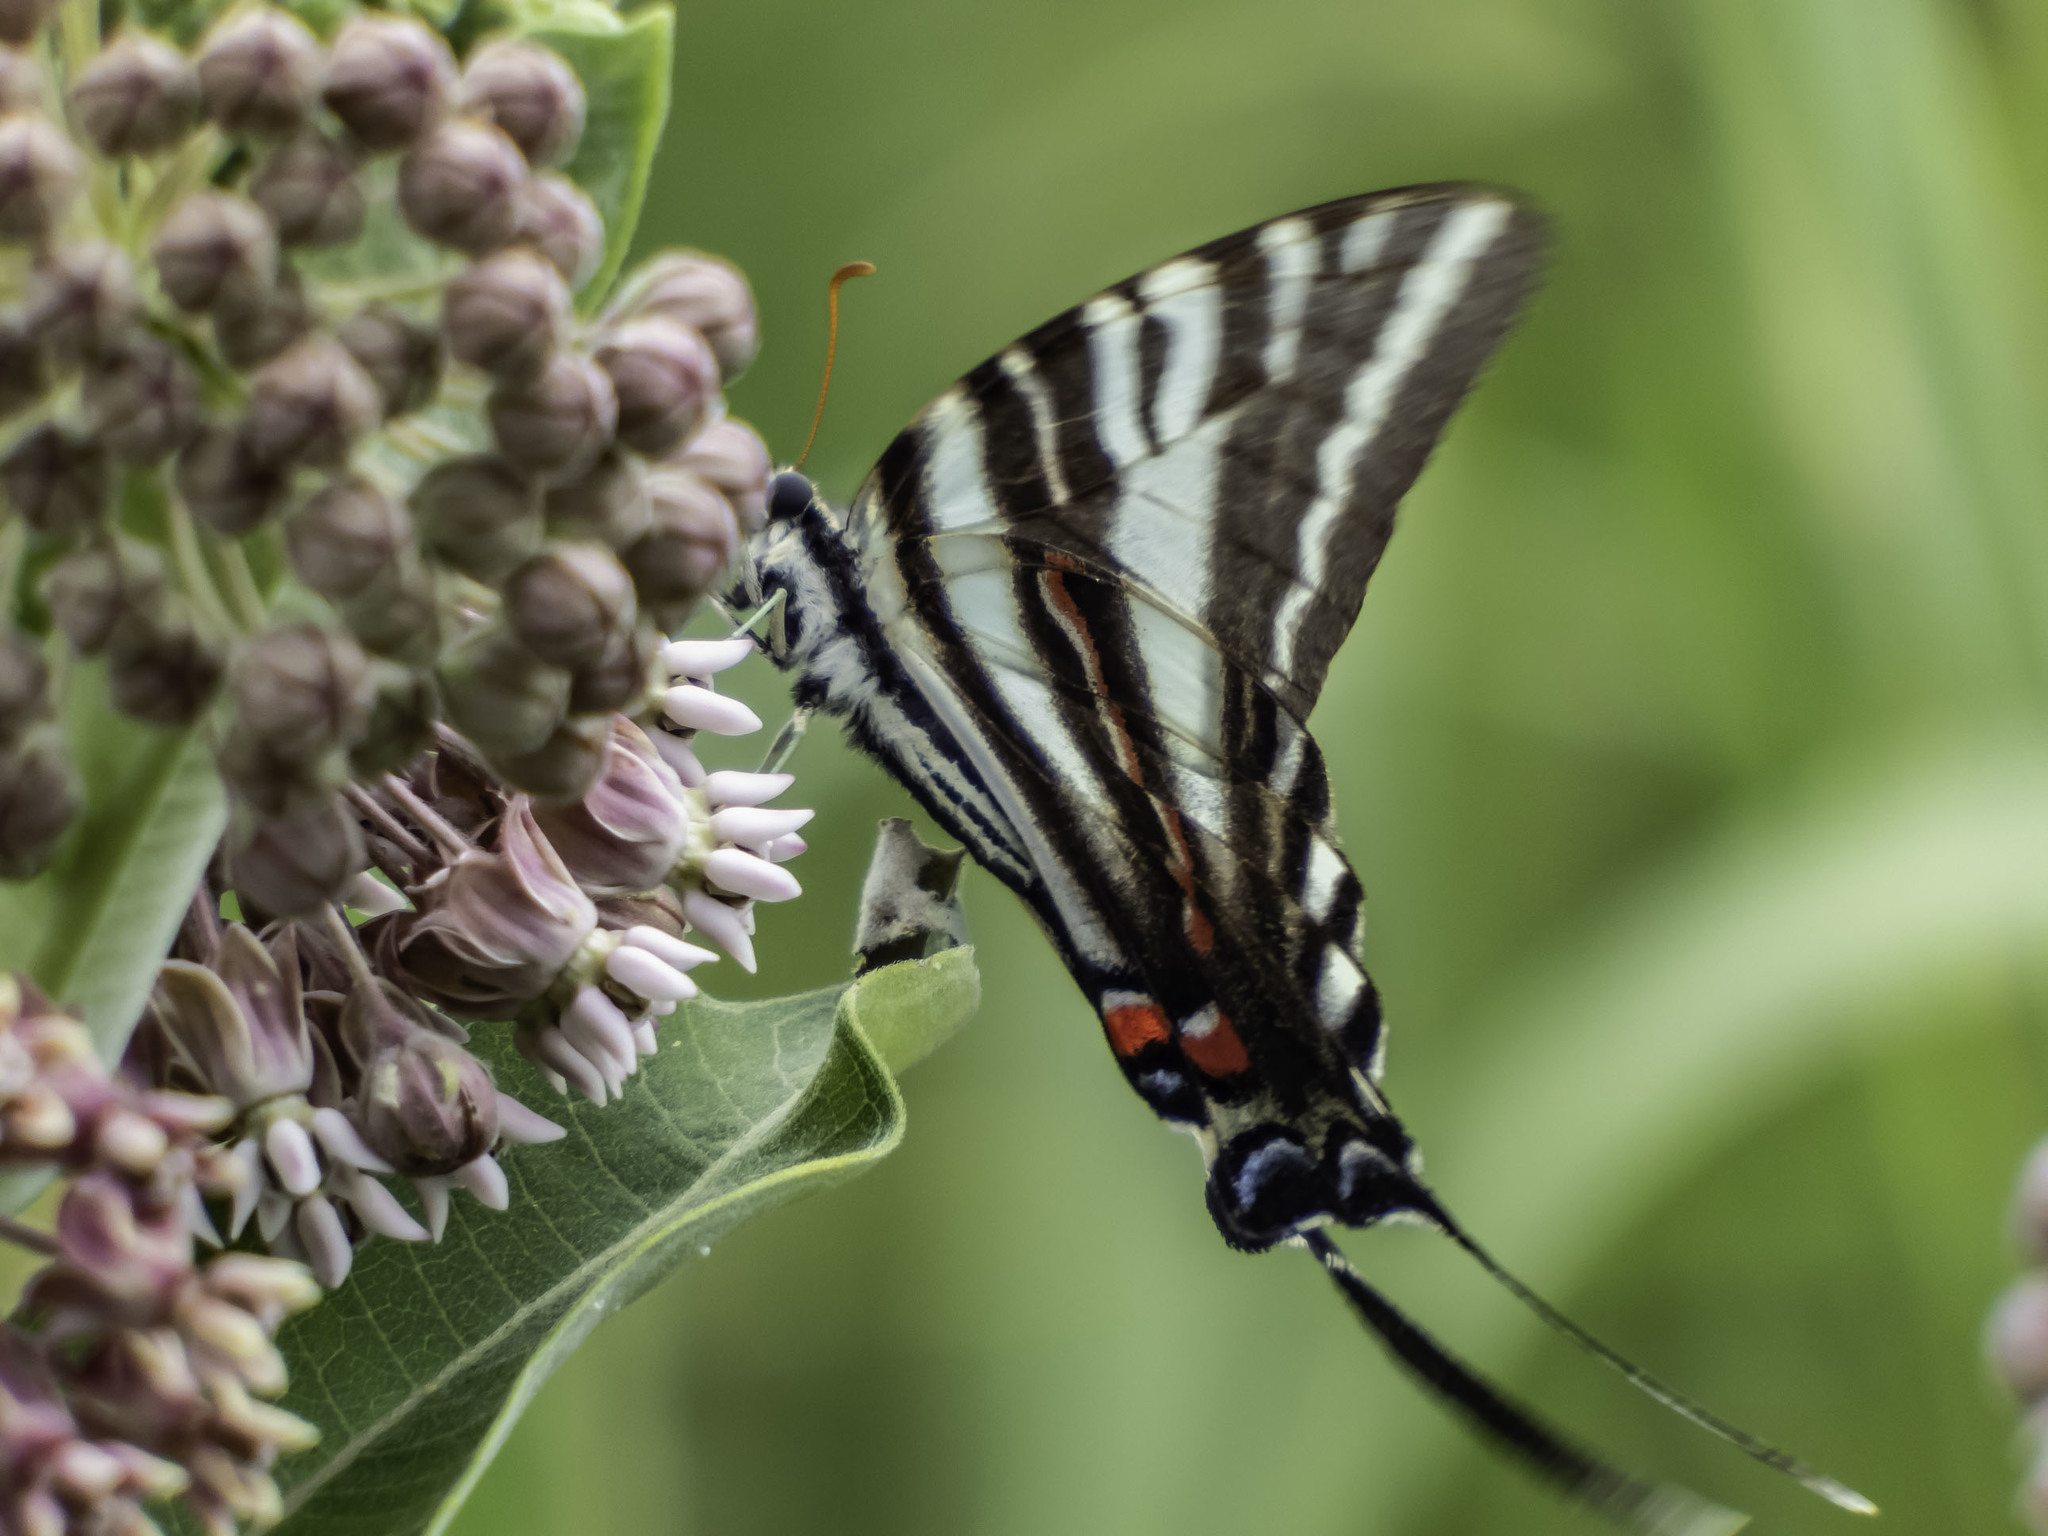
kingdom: Animalia
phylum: Arthropoda
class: Insecta
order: Lepidoptera
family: Papilionidae
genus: Protographium
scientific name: Protographium marcellus
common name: Zebra swallowtail
